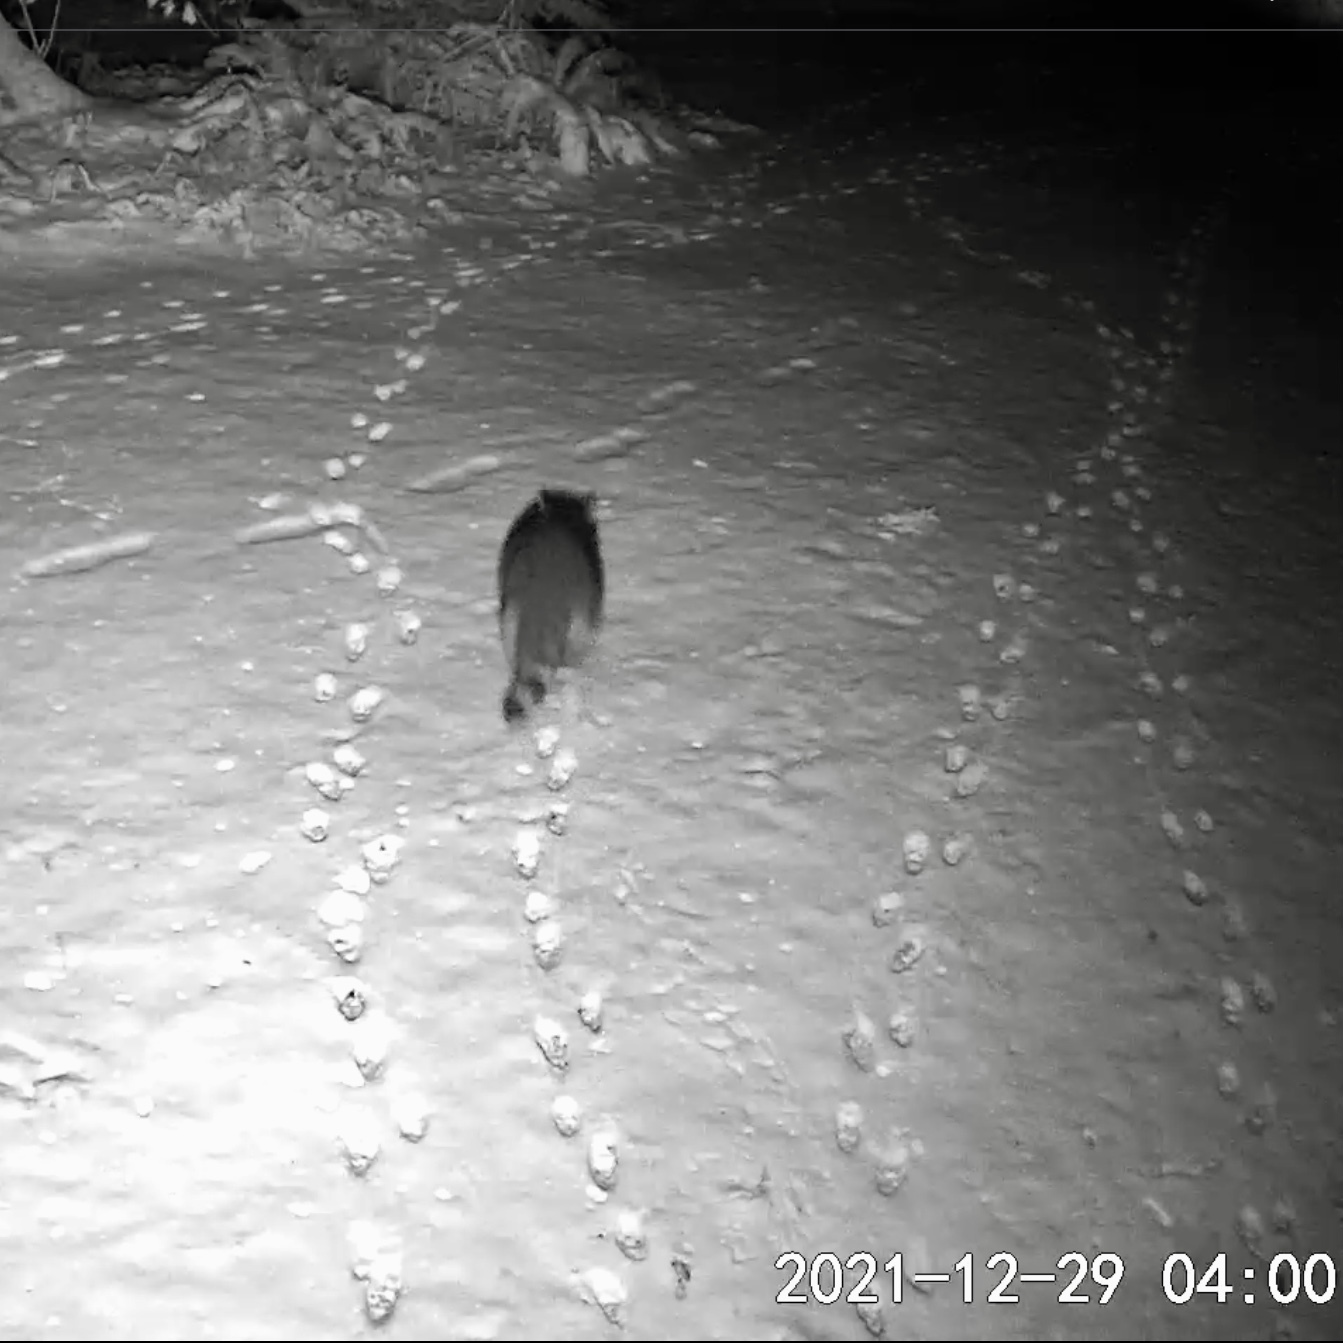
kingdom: Animalia
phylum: Chordata
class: Mammalia
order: Carnivora
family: Procyonidae
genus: Procyon
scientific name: Procyon lotor
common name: Raccoon
